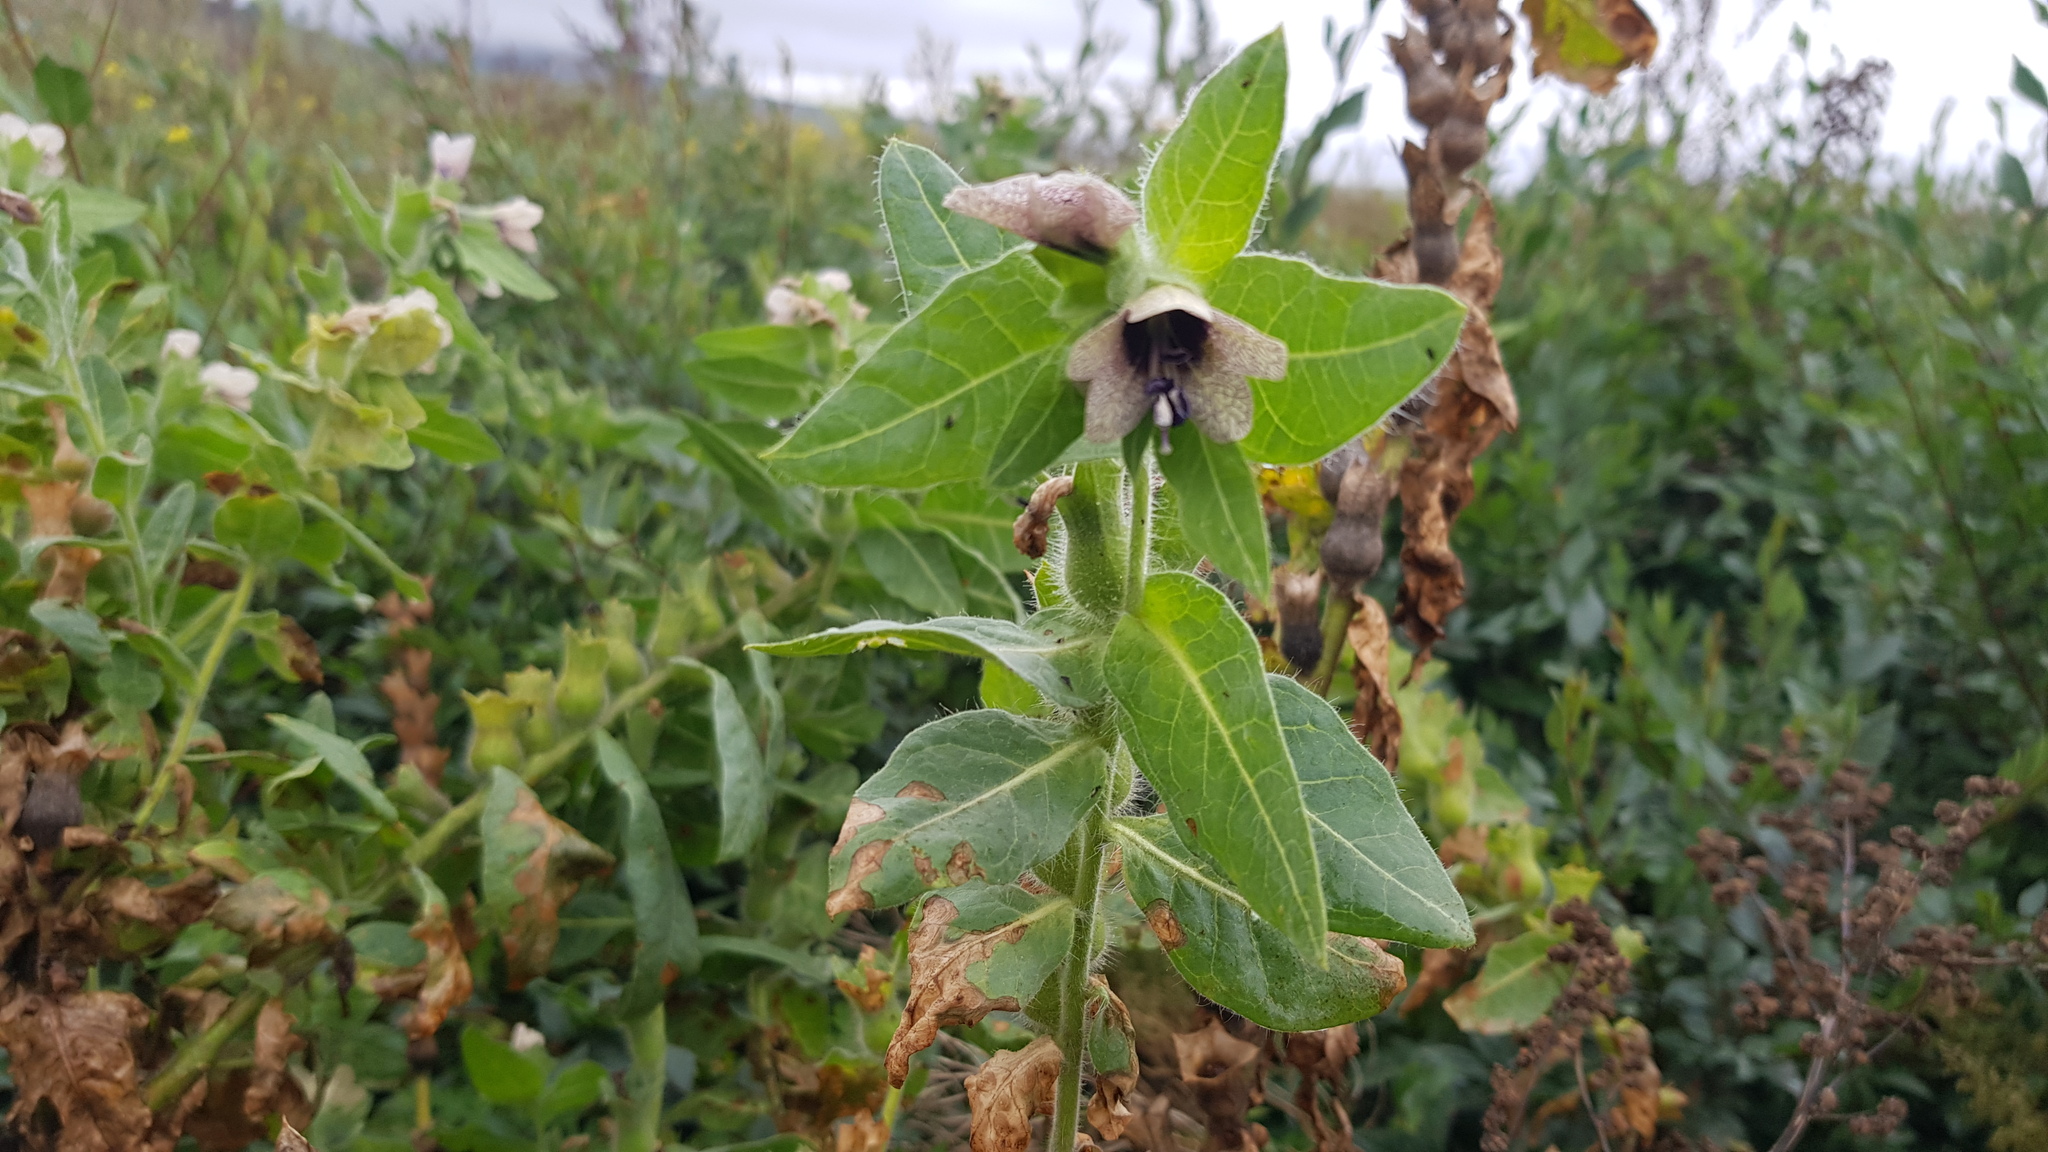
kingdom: Plantae
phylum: Tracheophyta
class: Magnoliopsida
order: Solanales
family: Solanaceae
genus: Hyoscyamus
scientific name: Hyoscyamus niger
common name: Henbane
